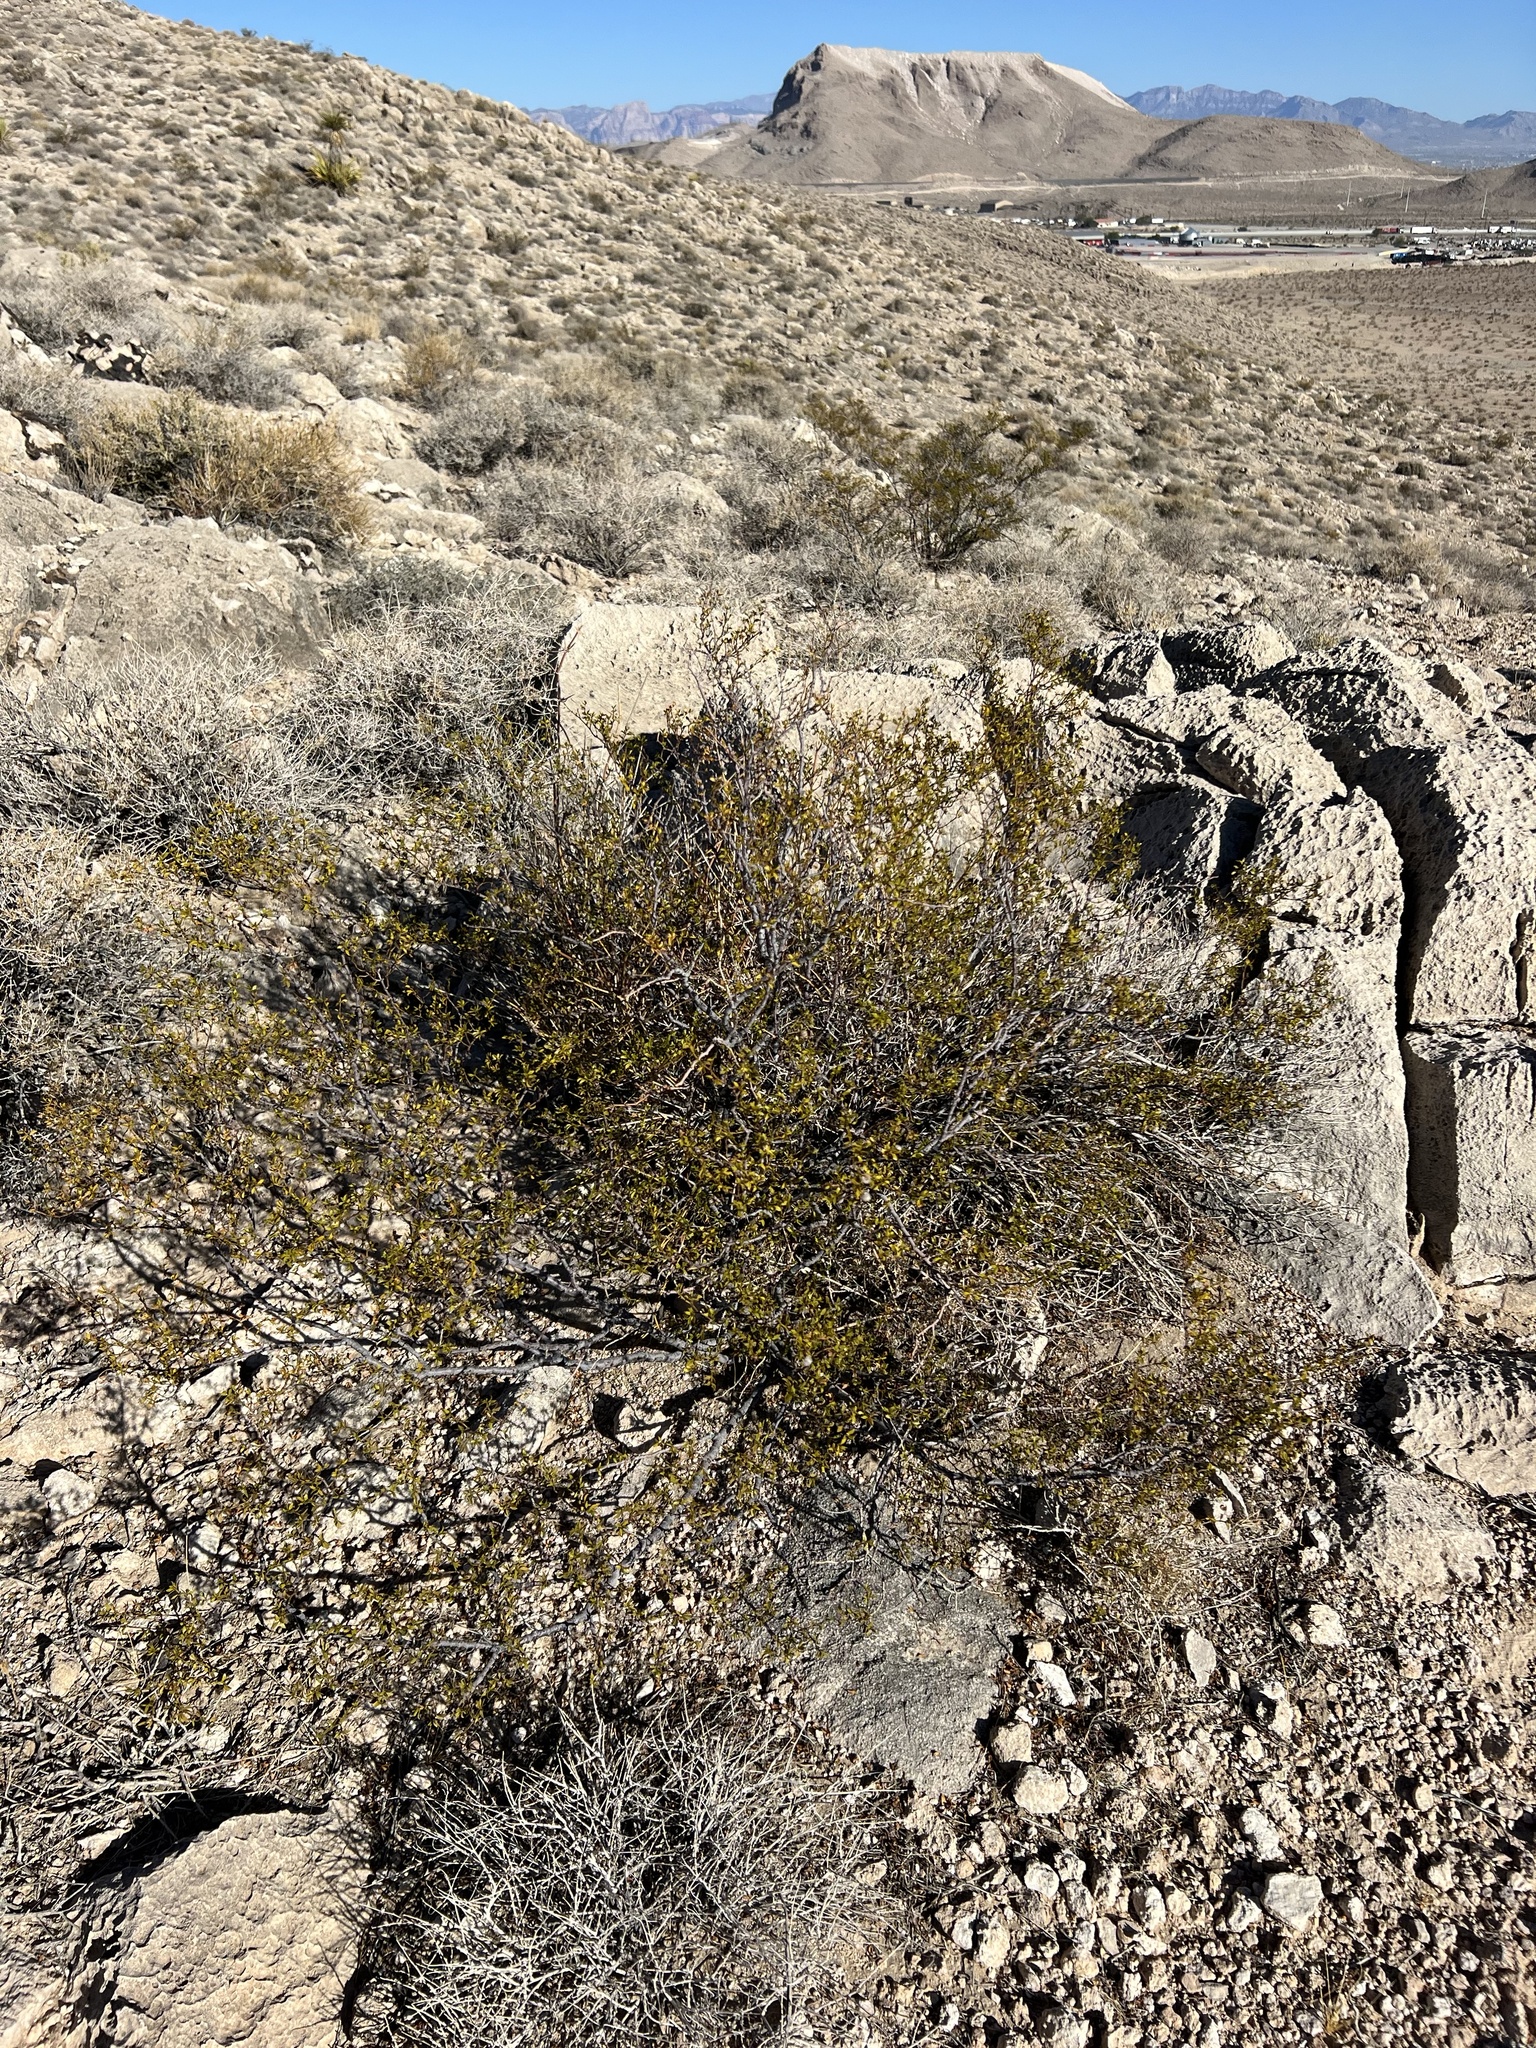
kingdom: Plantae
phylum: Tracheophyta
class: Magnoliopsida
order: Zygophyllales
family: Zygophyllaceae
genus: Larrea
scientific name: Larrea tridentata
